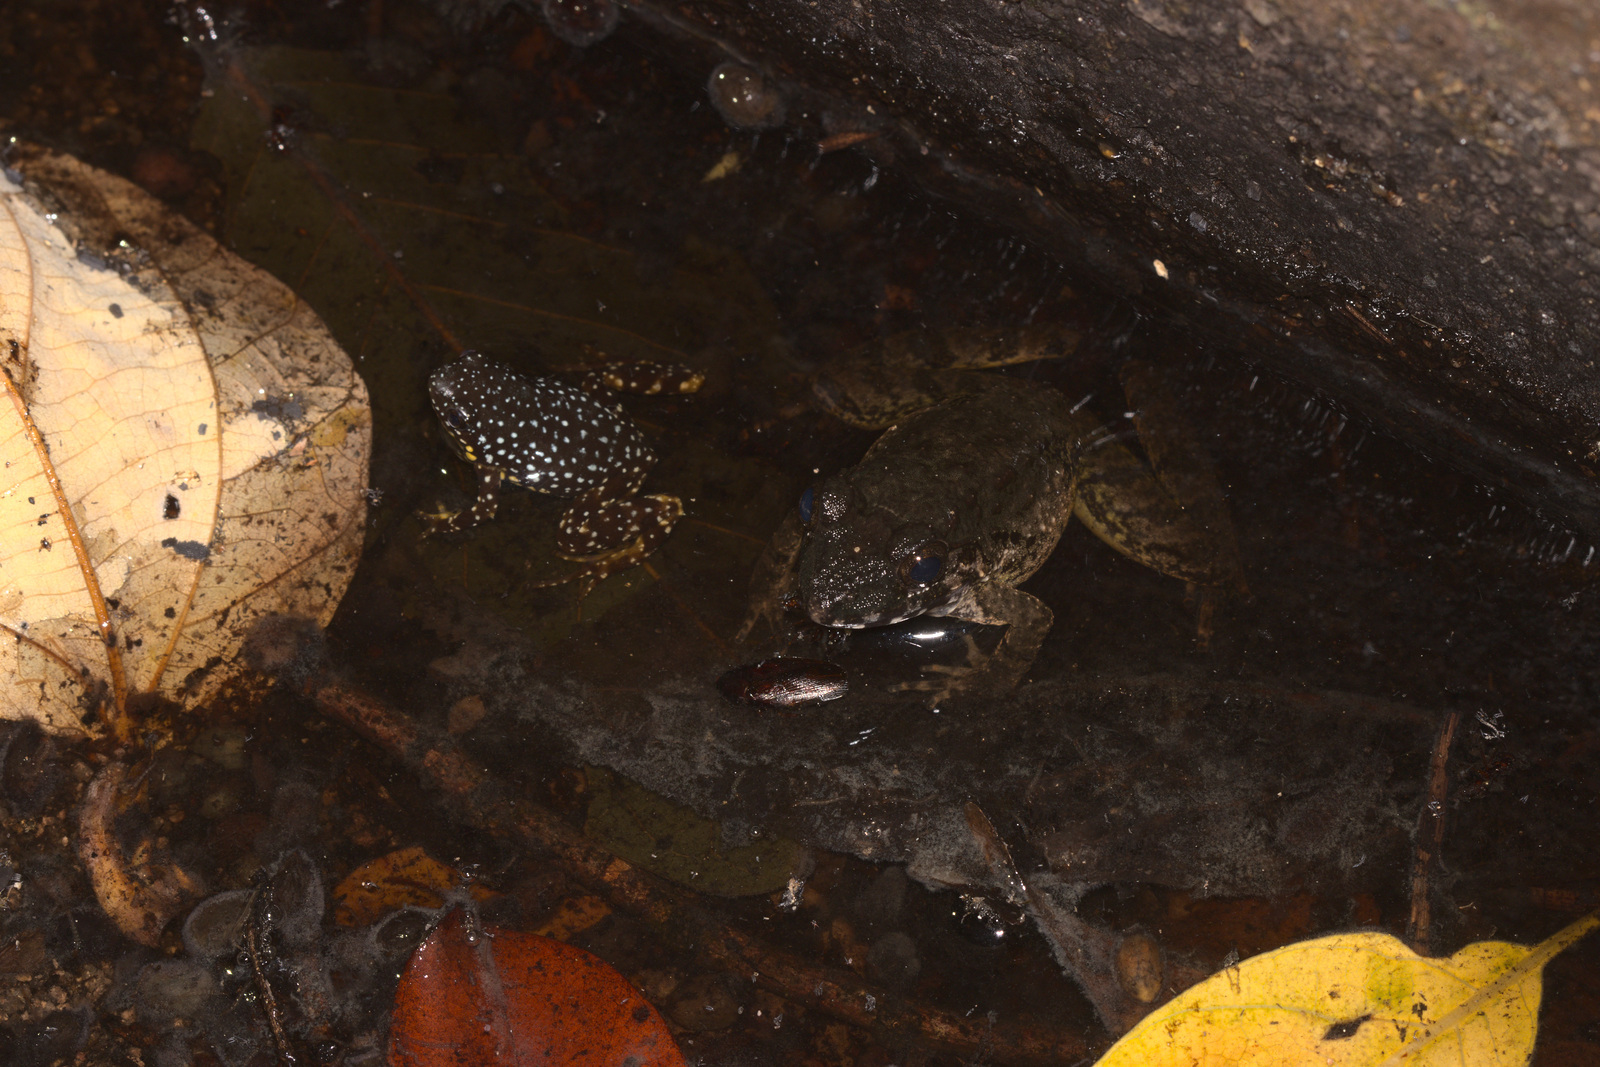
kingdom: Animalia
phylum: Chordata
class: Amphibia
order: Anura
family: Dicroglossidae
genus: Limnonectes
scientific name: Limnonectes blythii
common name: Blyth’s river frog/giant asian river frog/giant frog
